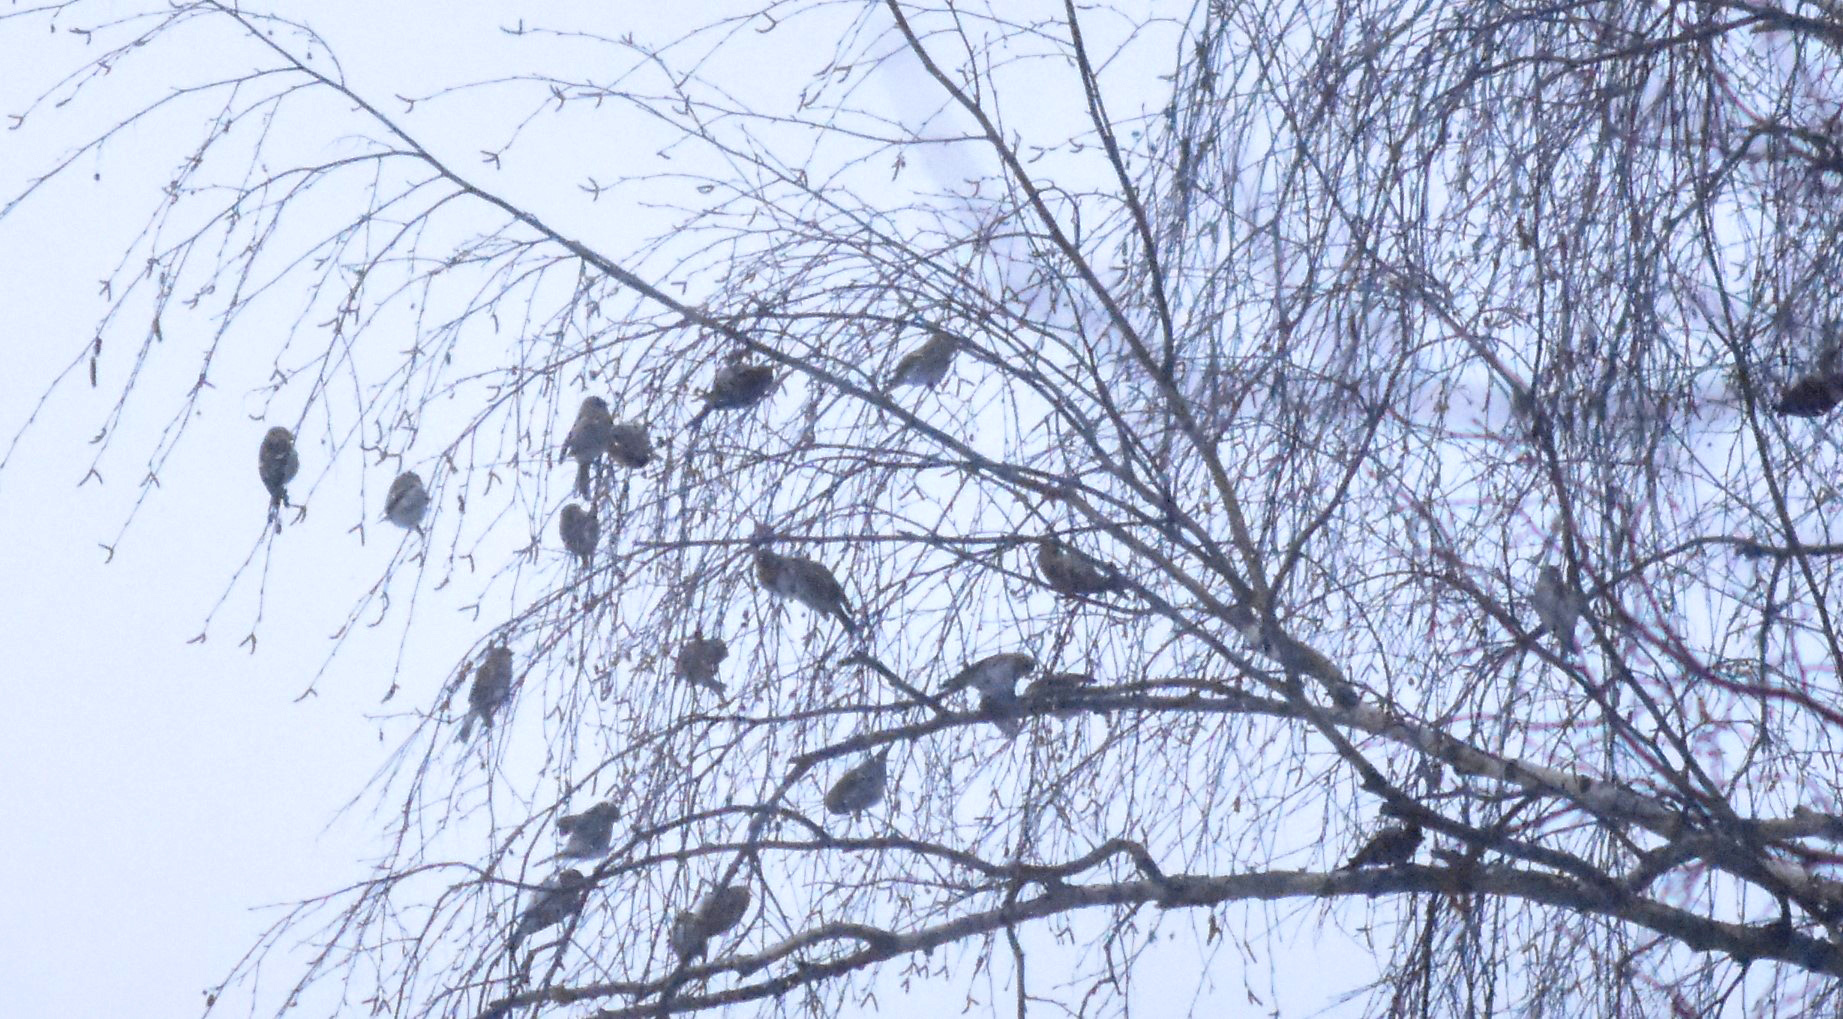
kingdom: Animalia
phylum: Chordata
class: Aves
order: Passeriformes
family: Fringillidae
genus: Acanthis
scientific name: Acanthis flammea
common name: Common redpoll
